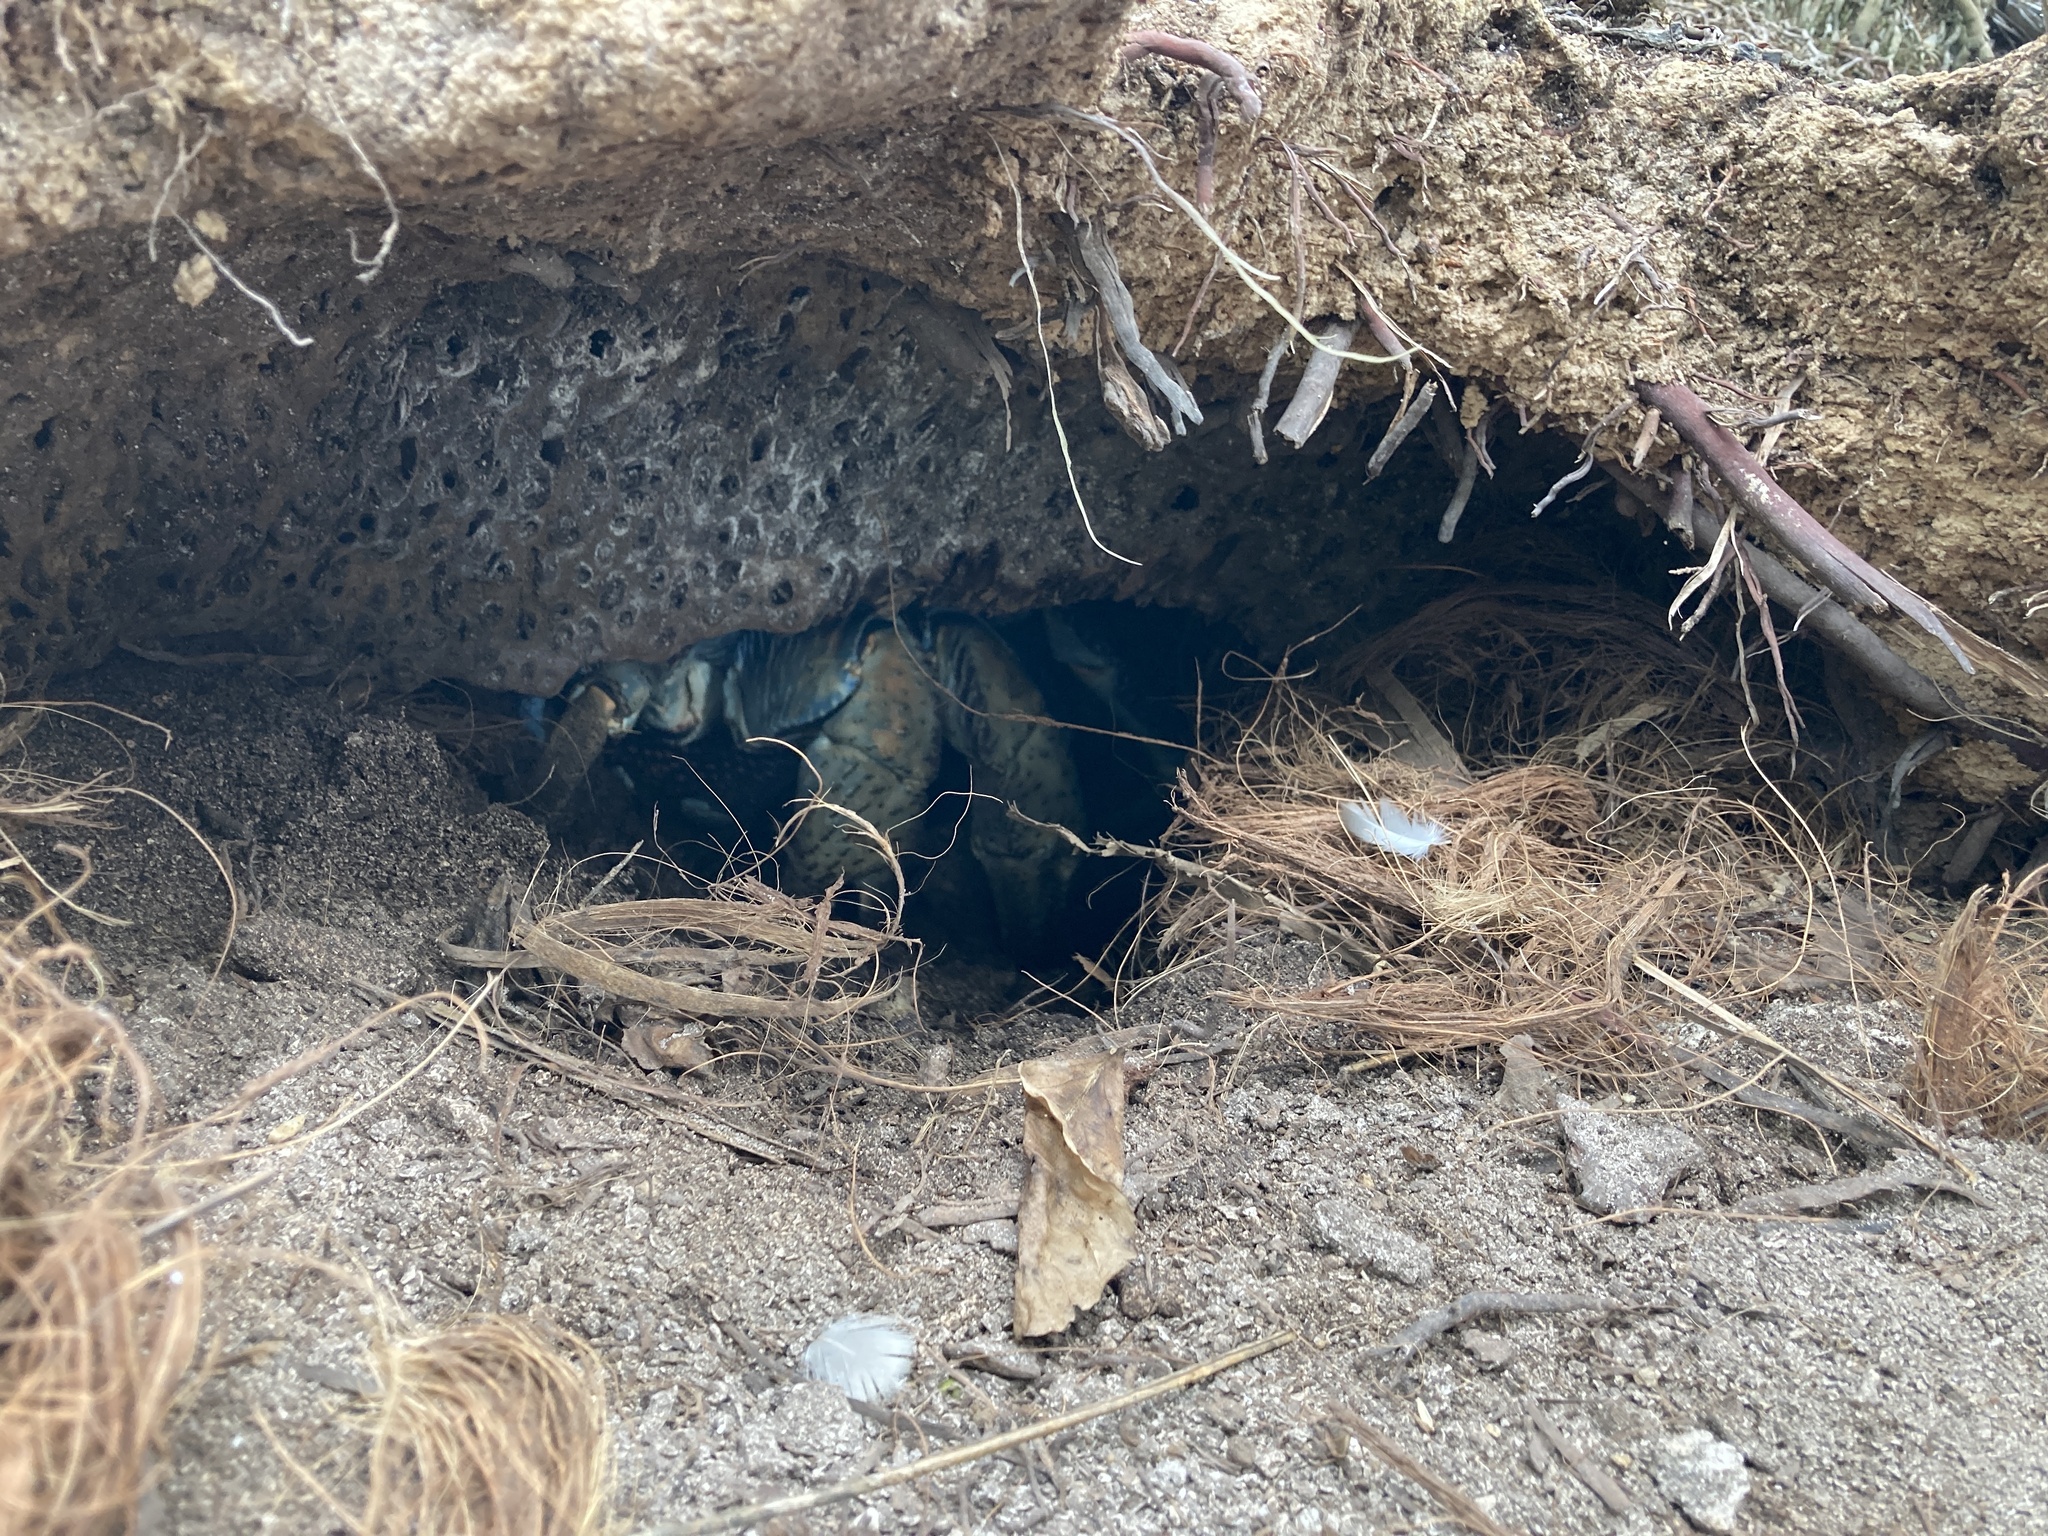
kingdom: Animalia
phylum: Arthropoda
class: Malacostraca
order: Decapoda
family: Coenobitidae
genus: Birgus
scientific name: Birgus latro
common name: Coconut crab
